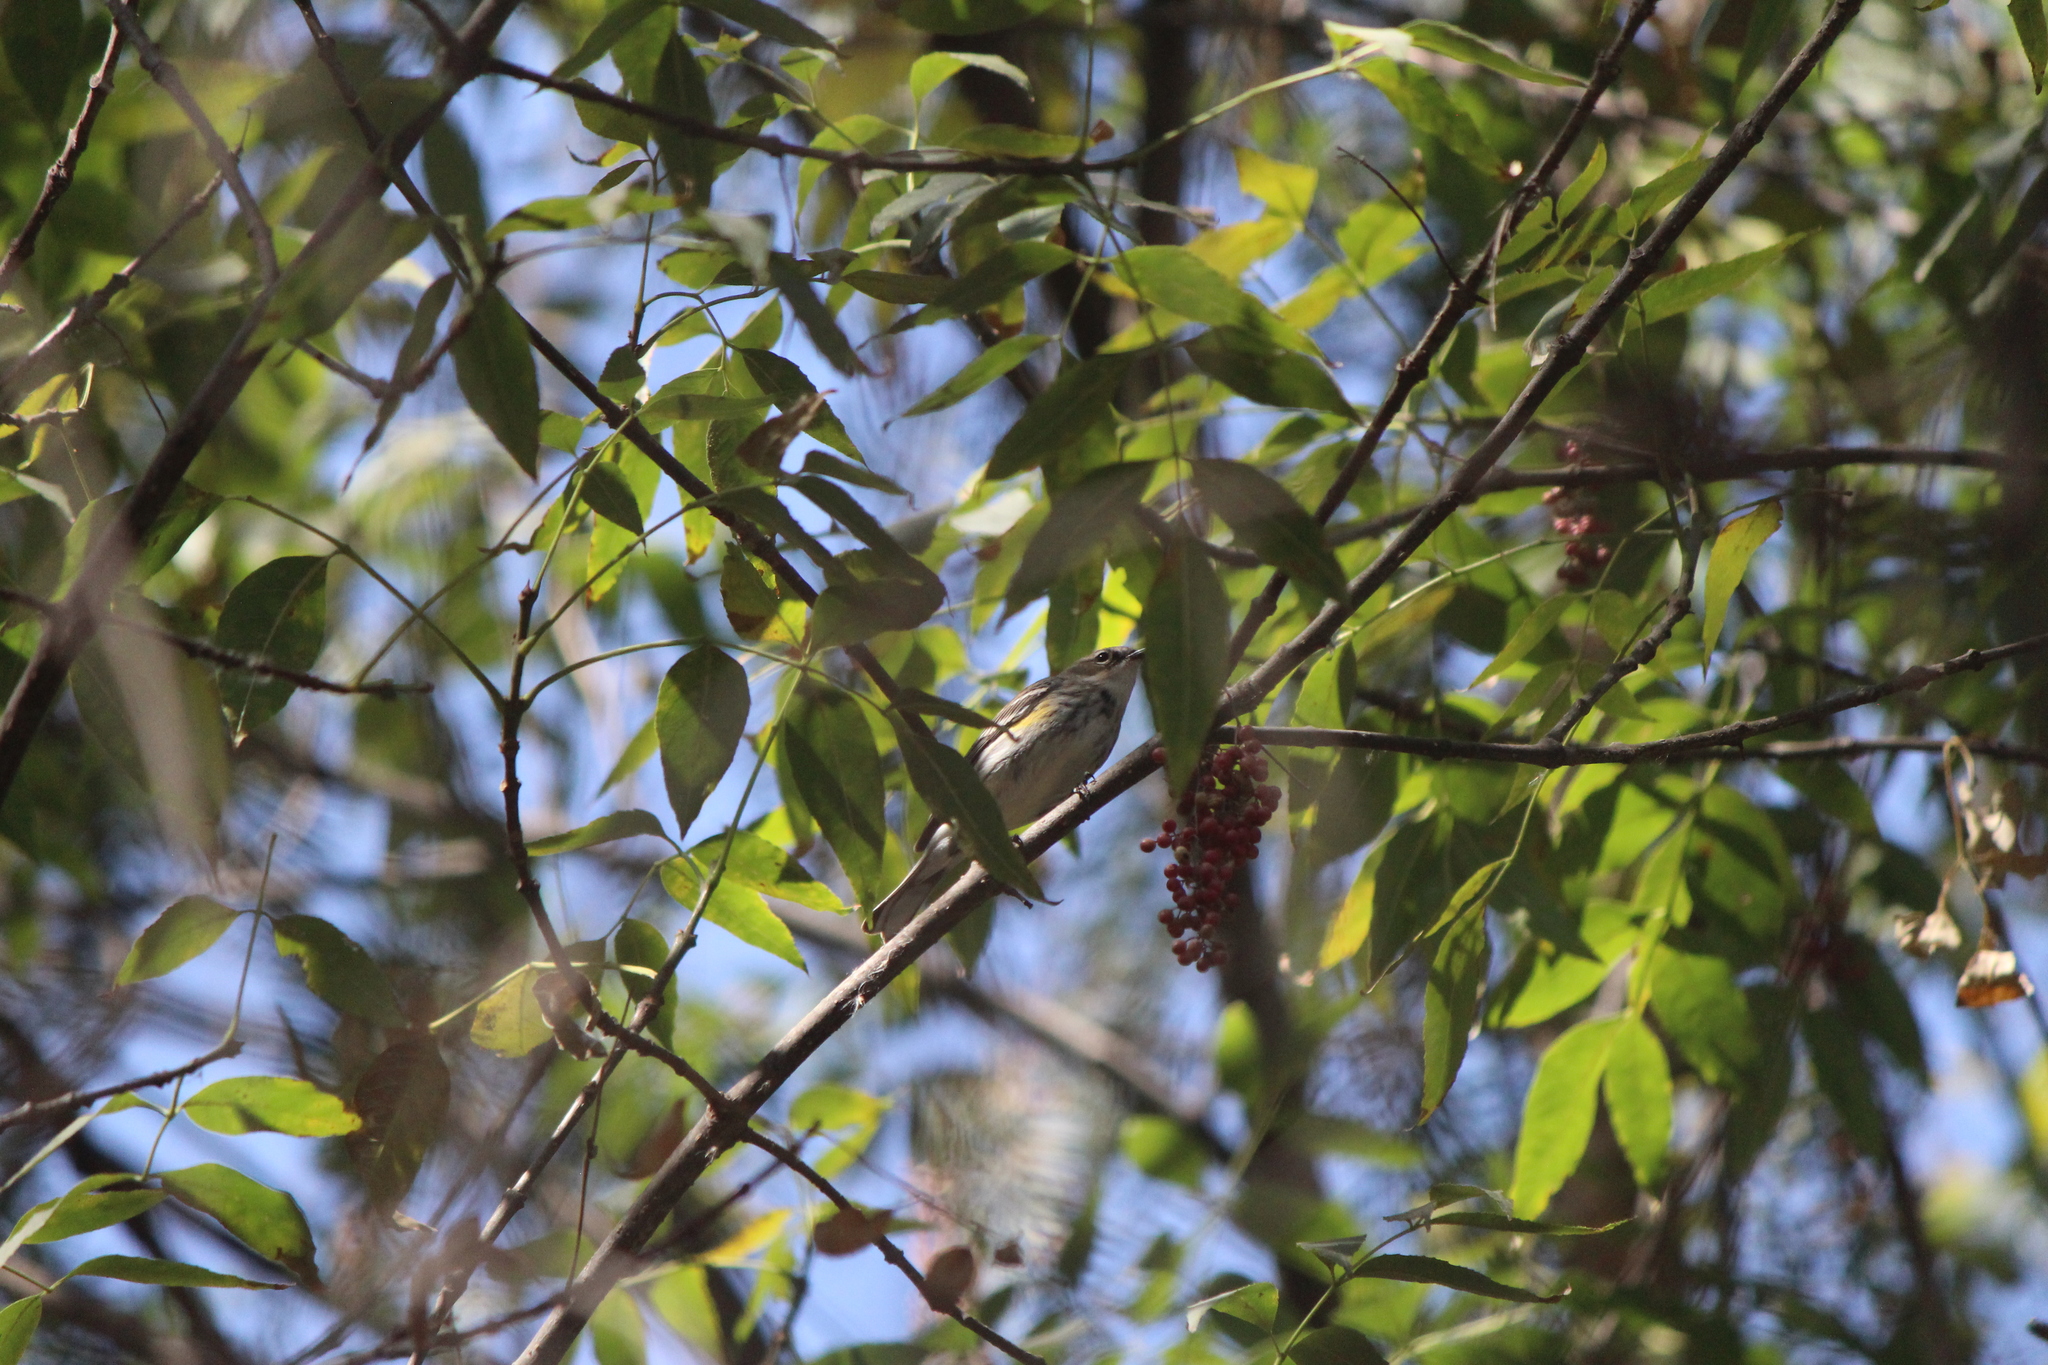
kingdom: Animalia
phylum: Chordata
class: Aves
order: Passeriformes
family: Parulidae
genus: Setophaga
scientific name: Setophaga coronata
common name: Myrtle warbler
